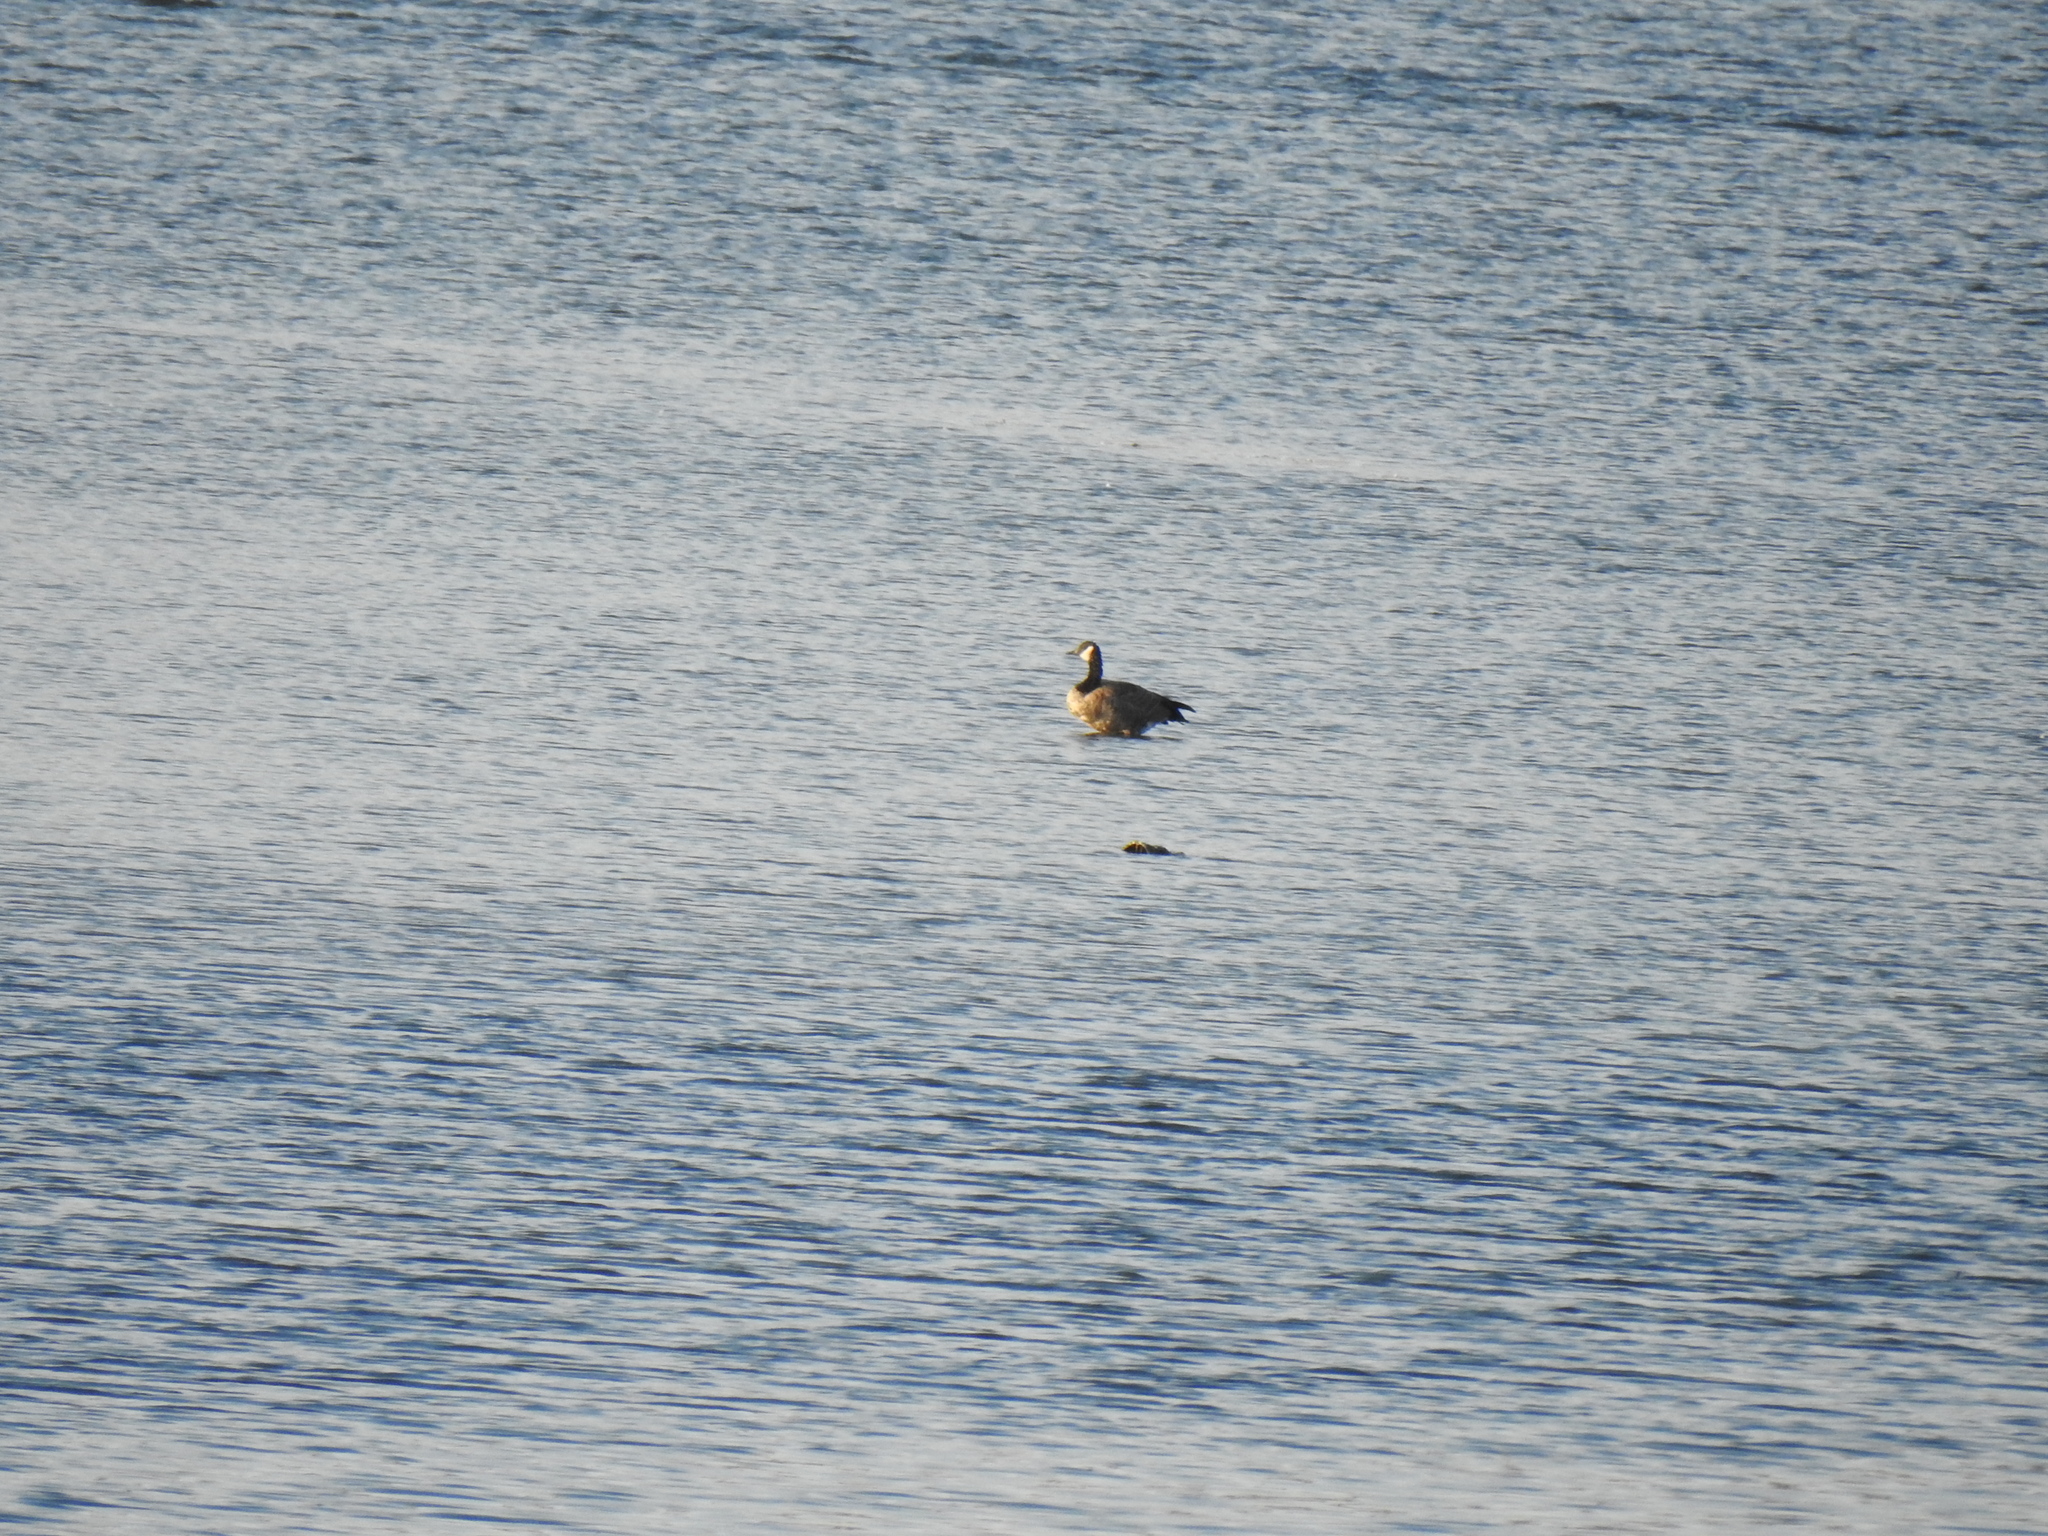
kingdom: Animalia
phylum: Chordata
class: Aves
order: Anseriformes
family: Anatidae
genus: Branta
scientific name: Branta canadensis
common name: Canada goose
